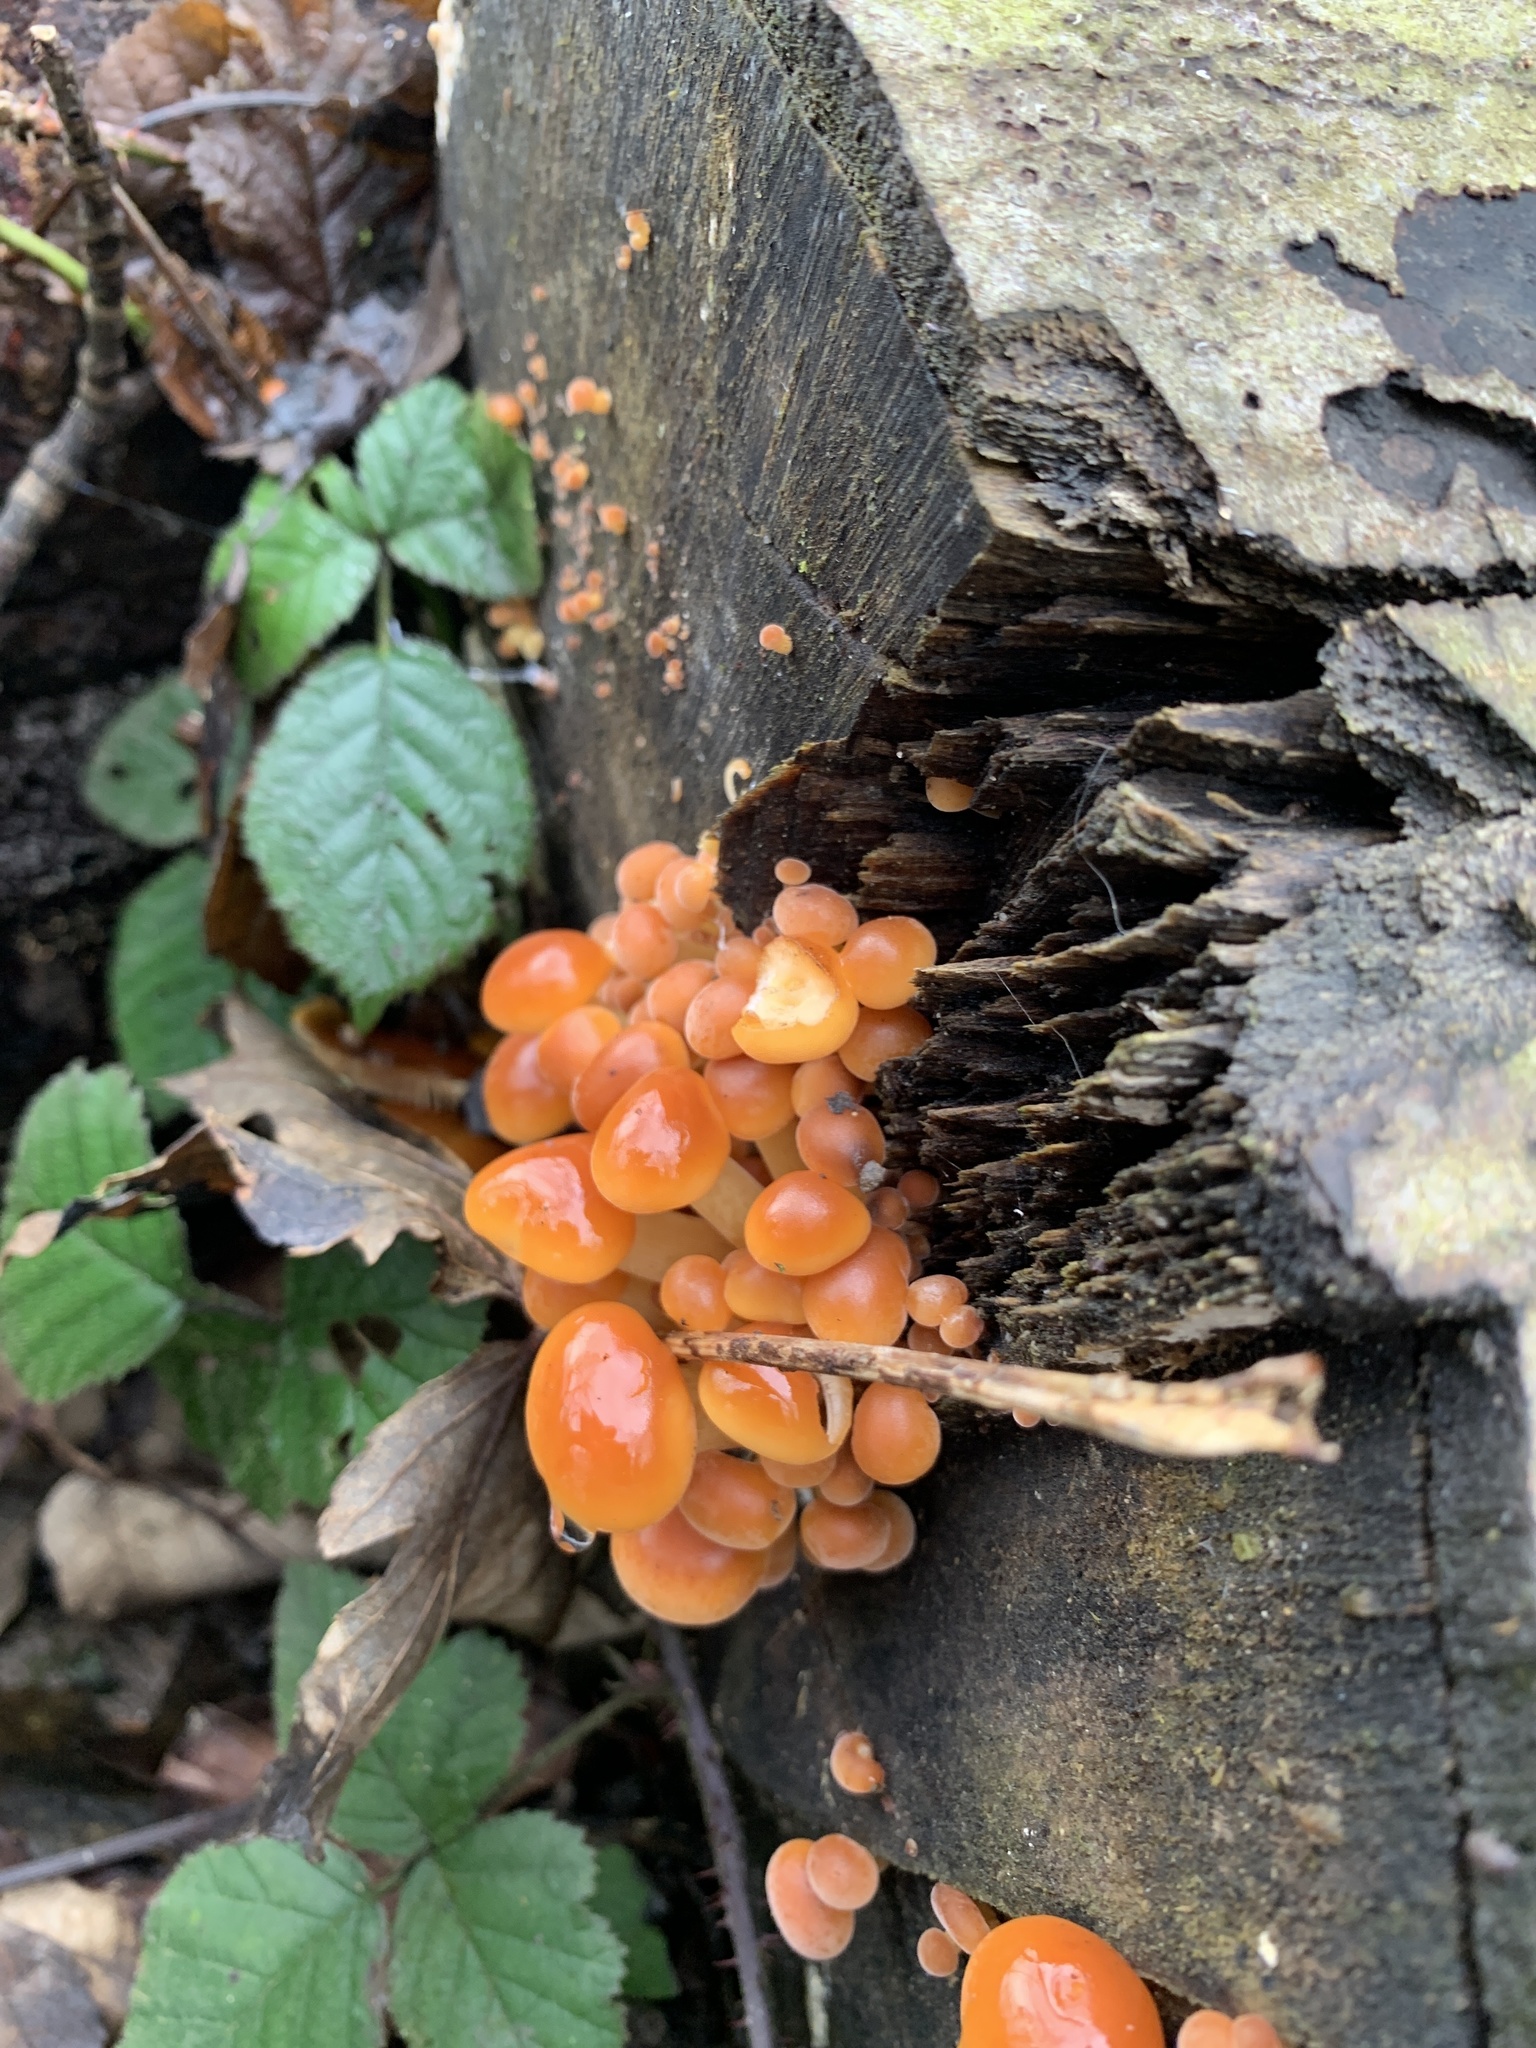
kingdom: Fungi
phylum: Basidiomycota
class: Agaricomycetes
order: Agaricales
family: Physalacriaceae
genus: Flammulina
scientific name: Flammulina
